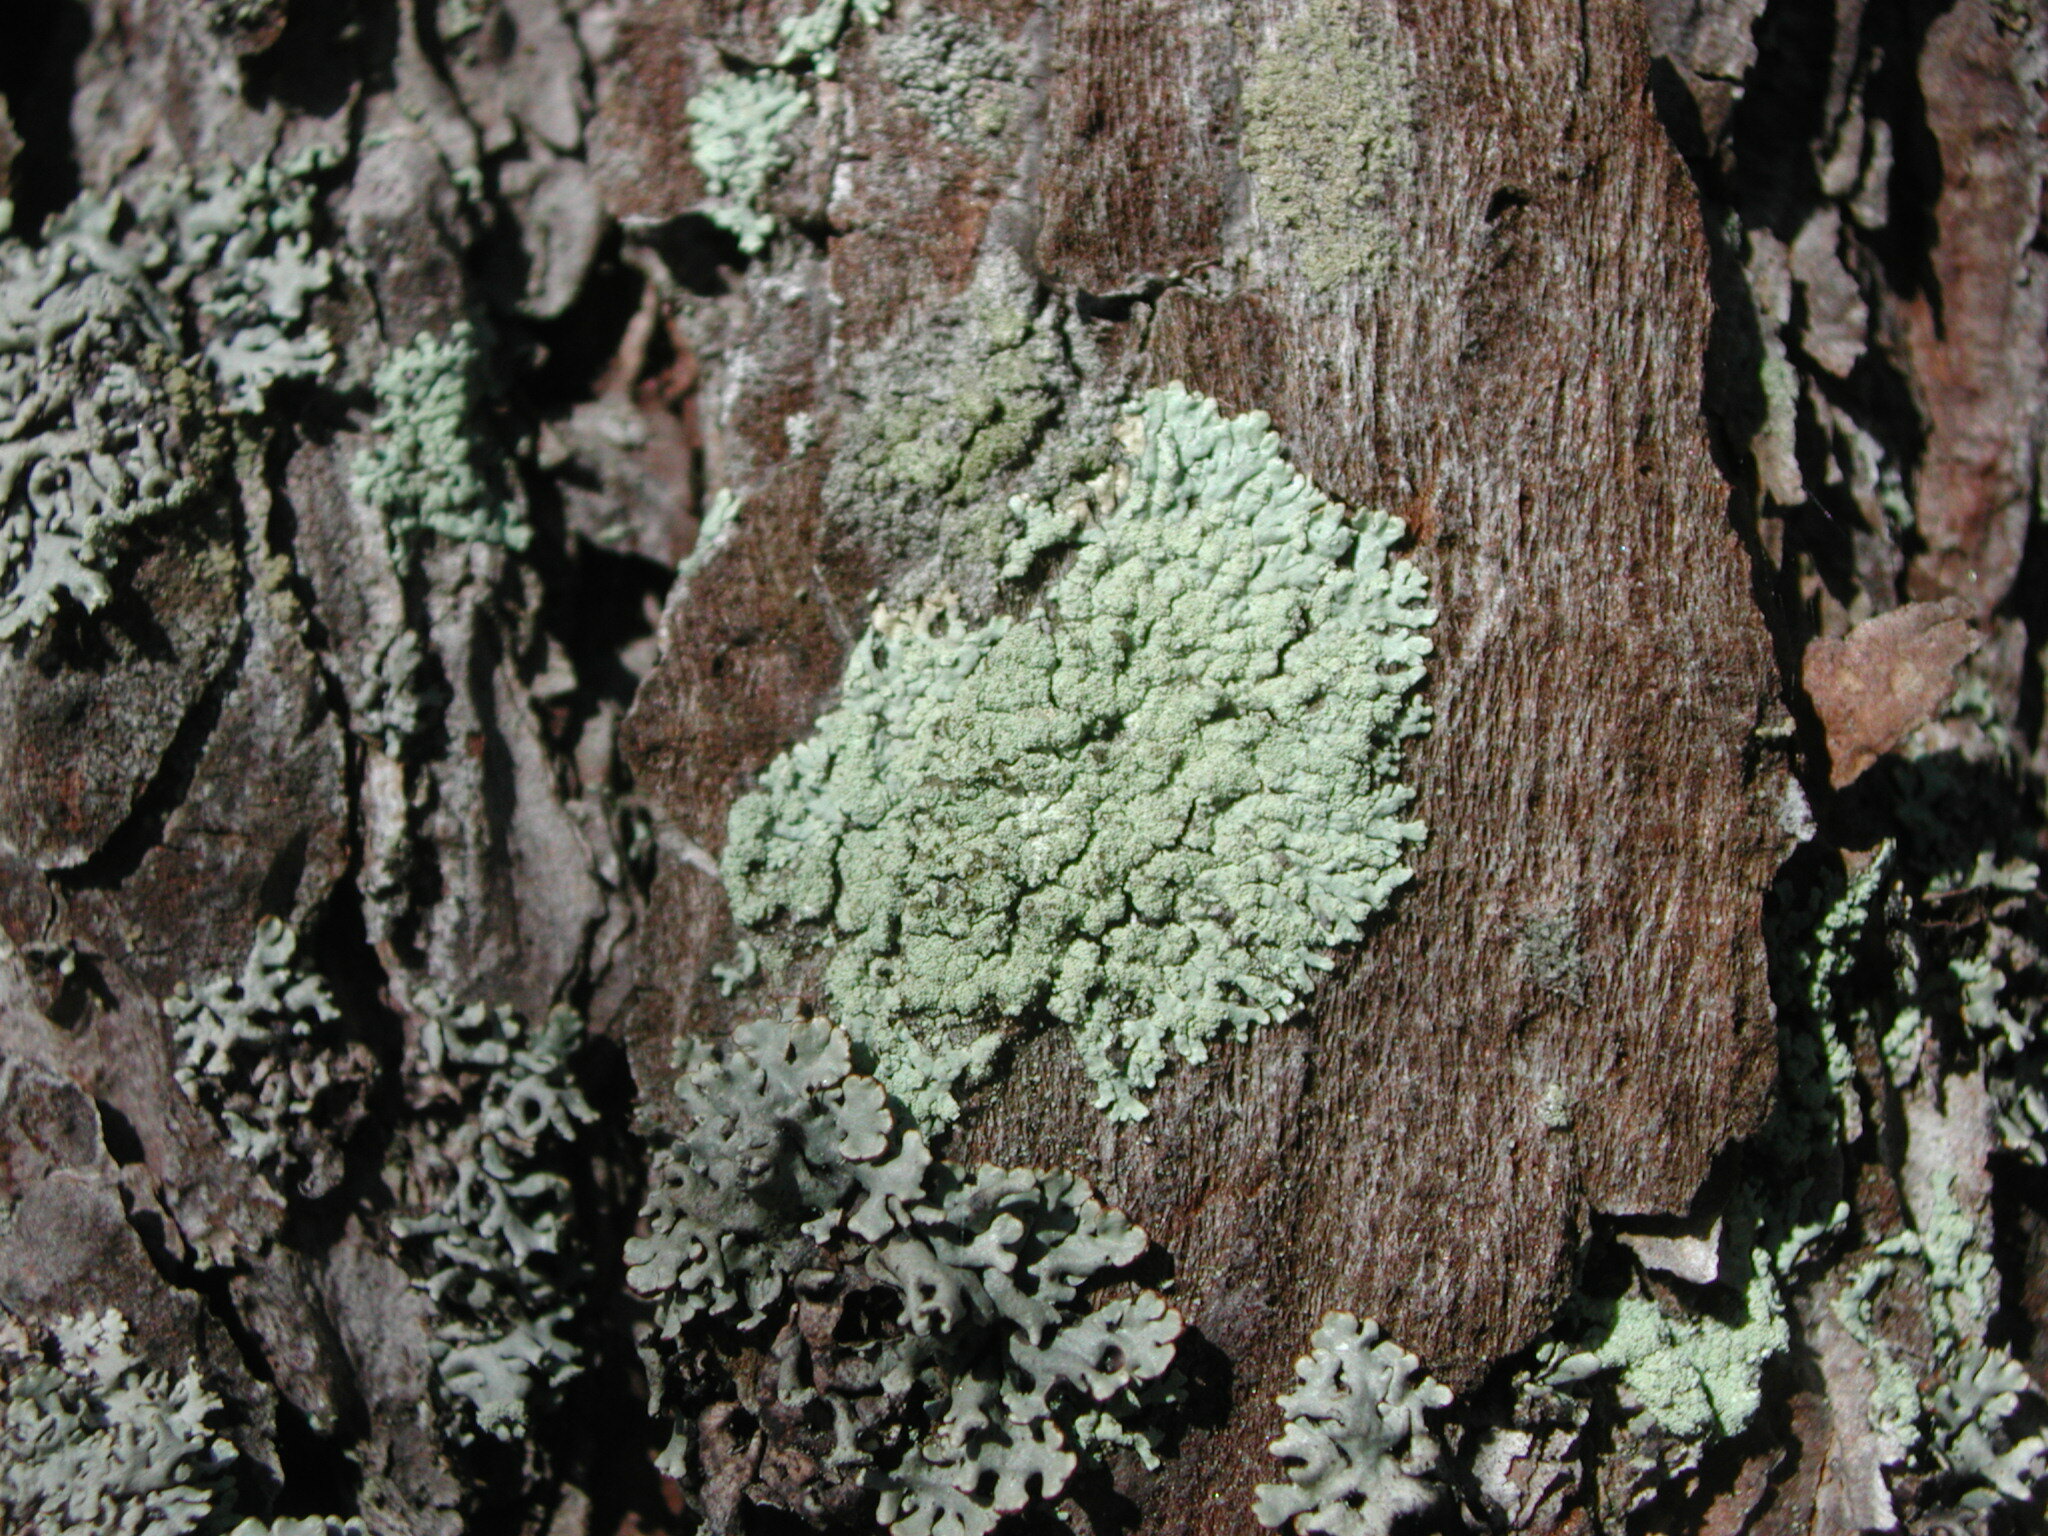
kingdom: Fungi
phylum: Ascomycota
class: Lecanoromycetes
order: Lecanorales
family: Parmeliaceae
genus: Parmeliopsis
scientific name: Parmeliopsis ambigua
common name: Green starburst lichen
